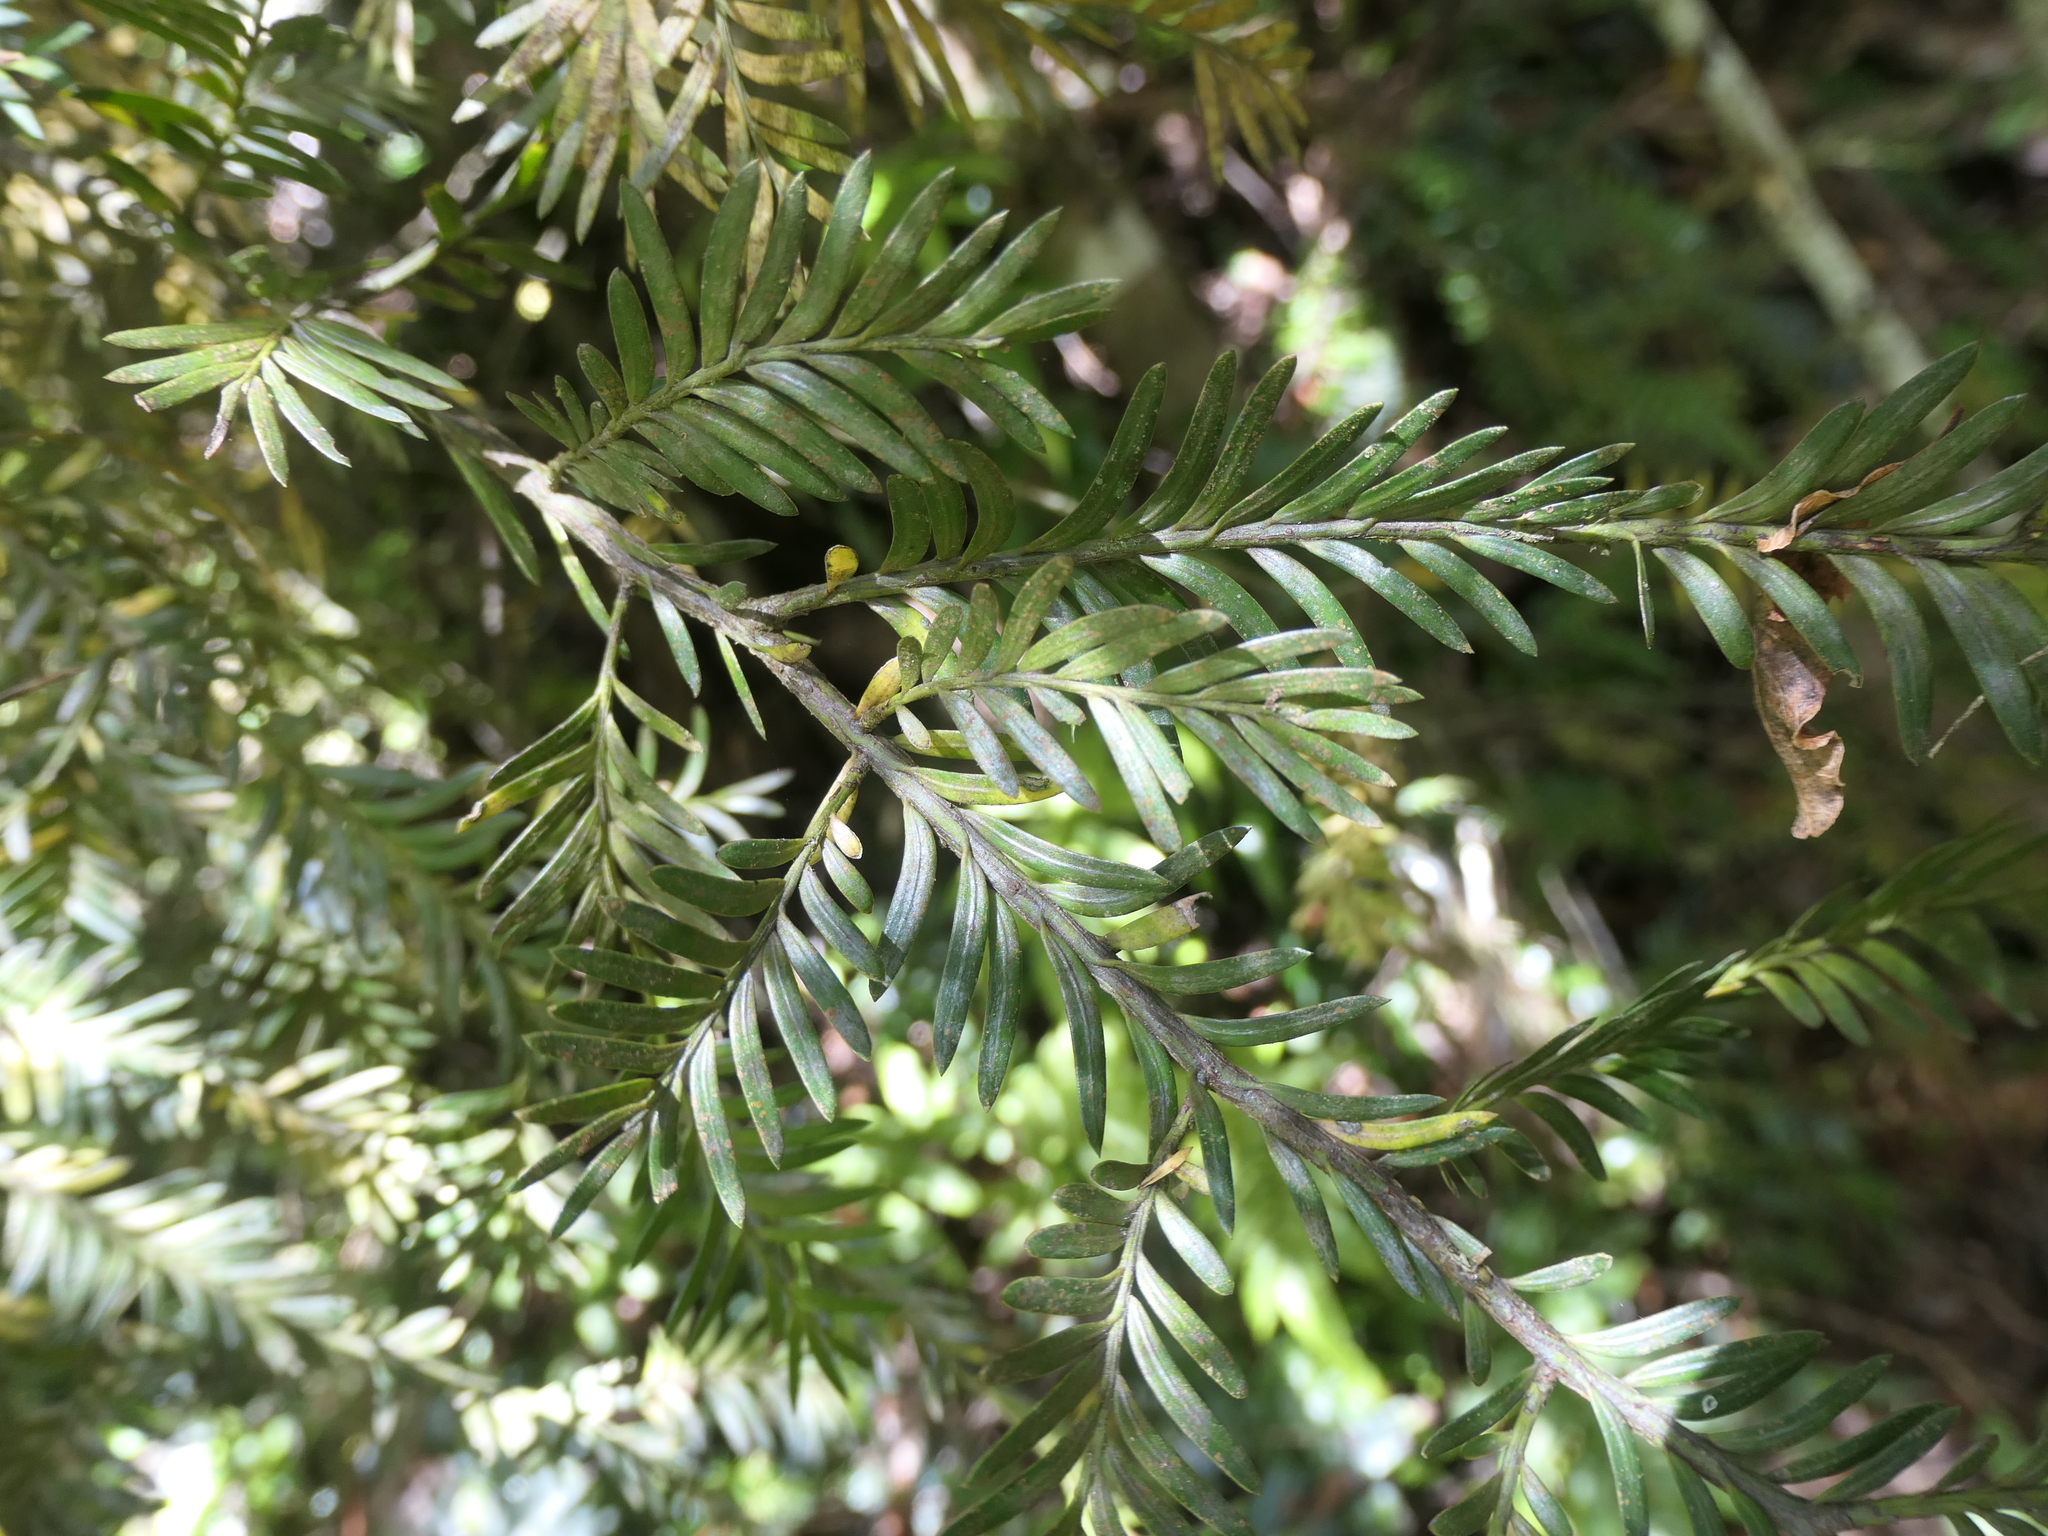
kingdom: Plantae
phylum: Tracheophyta
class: Pinopsida
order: Pinales
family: Podocarpaceae
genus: Prumnopitys
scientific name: Prumnopitys ferruginea
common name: Brown pine
